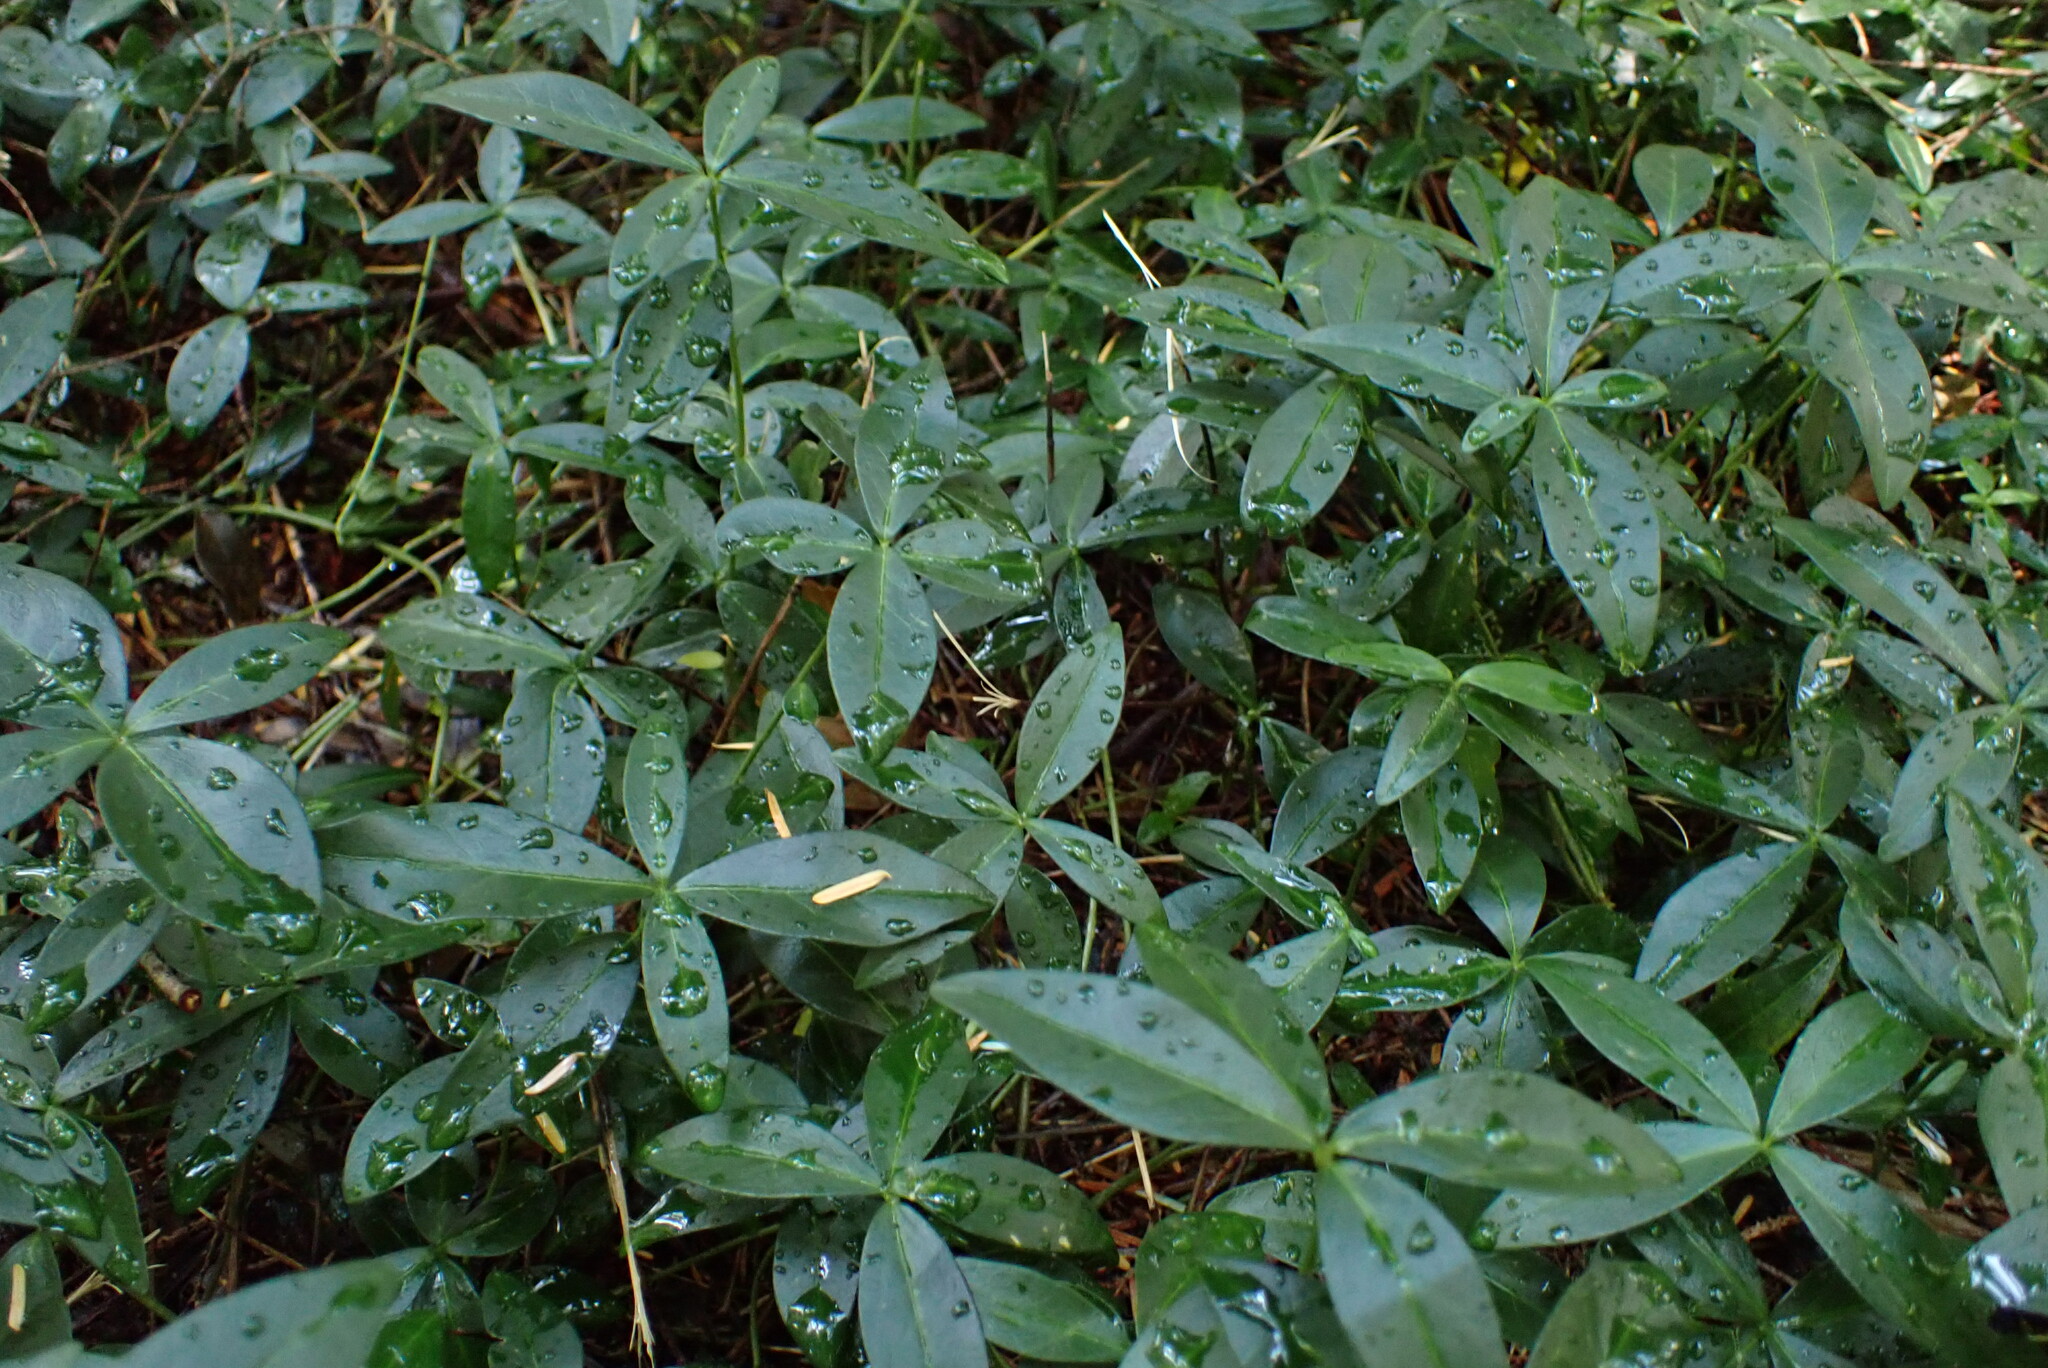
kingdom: Plantae
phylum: Tracheophyta
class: Magnoliopsida
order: Gentianales
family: Apocynaceae
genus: Vinca
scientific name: Vinca minor
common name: Lesser periwinkle
